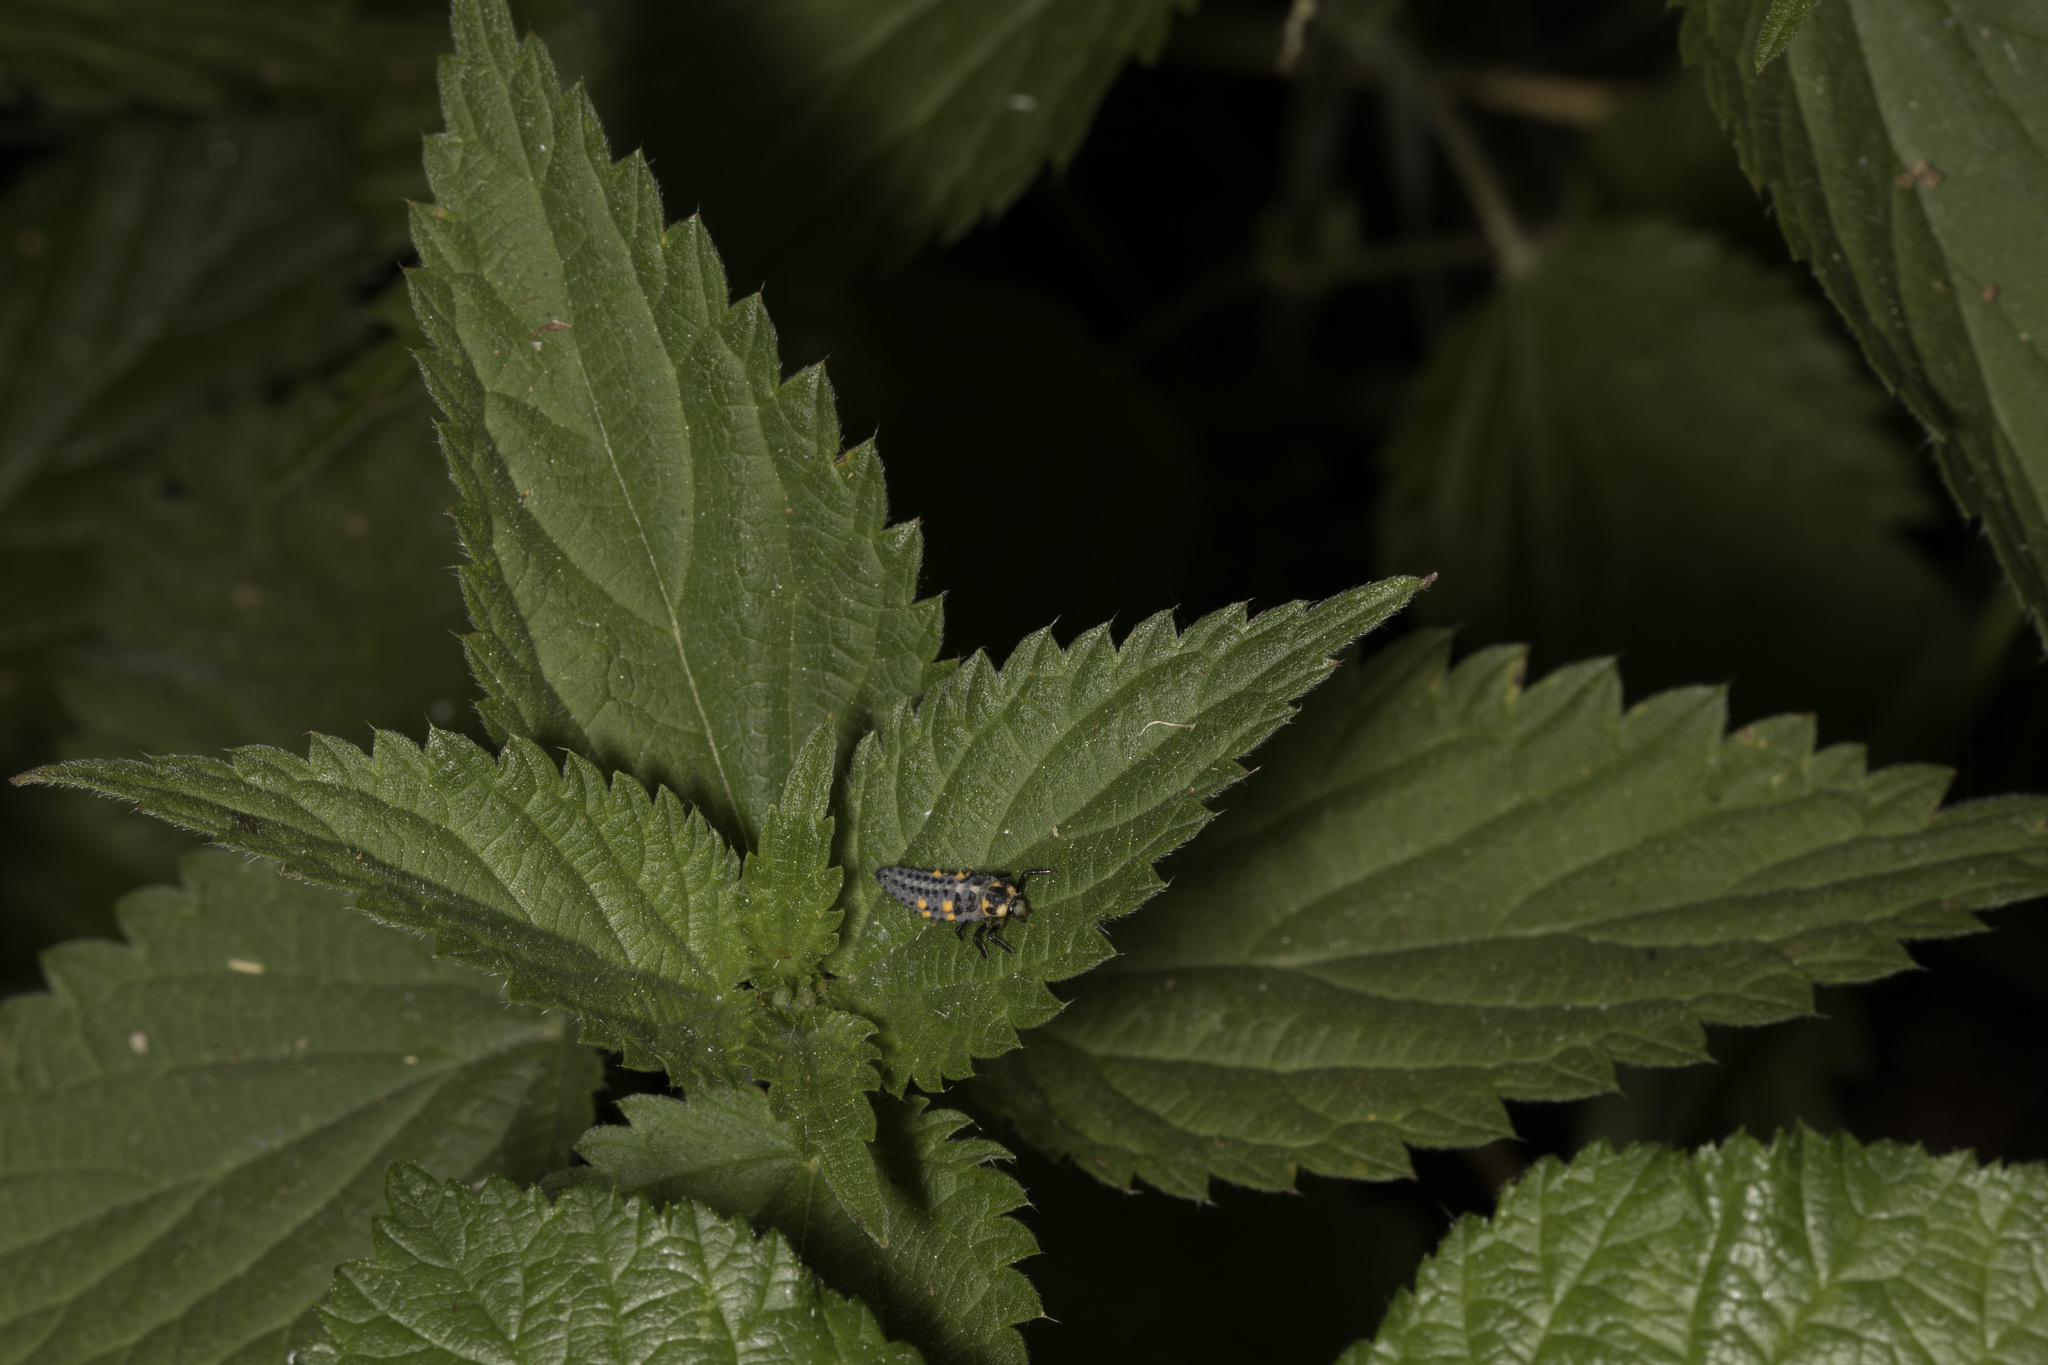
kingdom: Animalia
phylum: Arthropoda
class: Insecta
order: Coleoptera
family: Coccinellidae
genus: Coccinella
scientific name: Coccinella septempunctata
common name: Sevenspotted lady beetle
